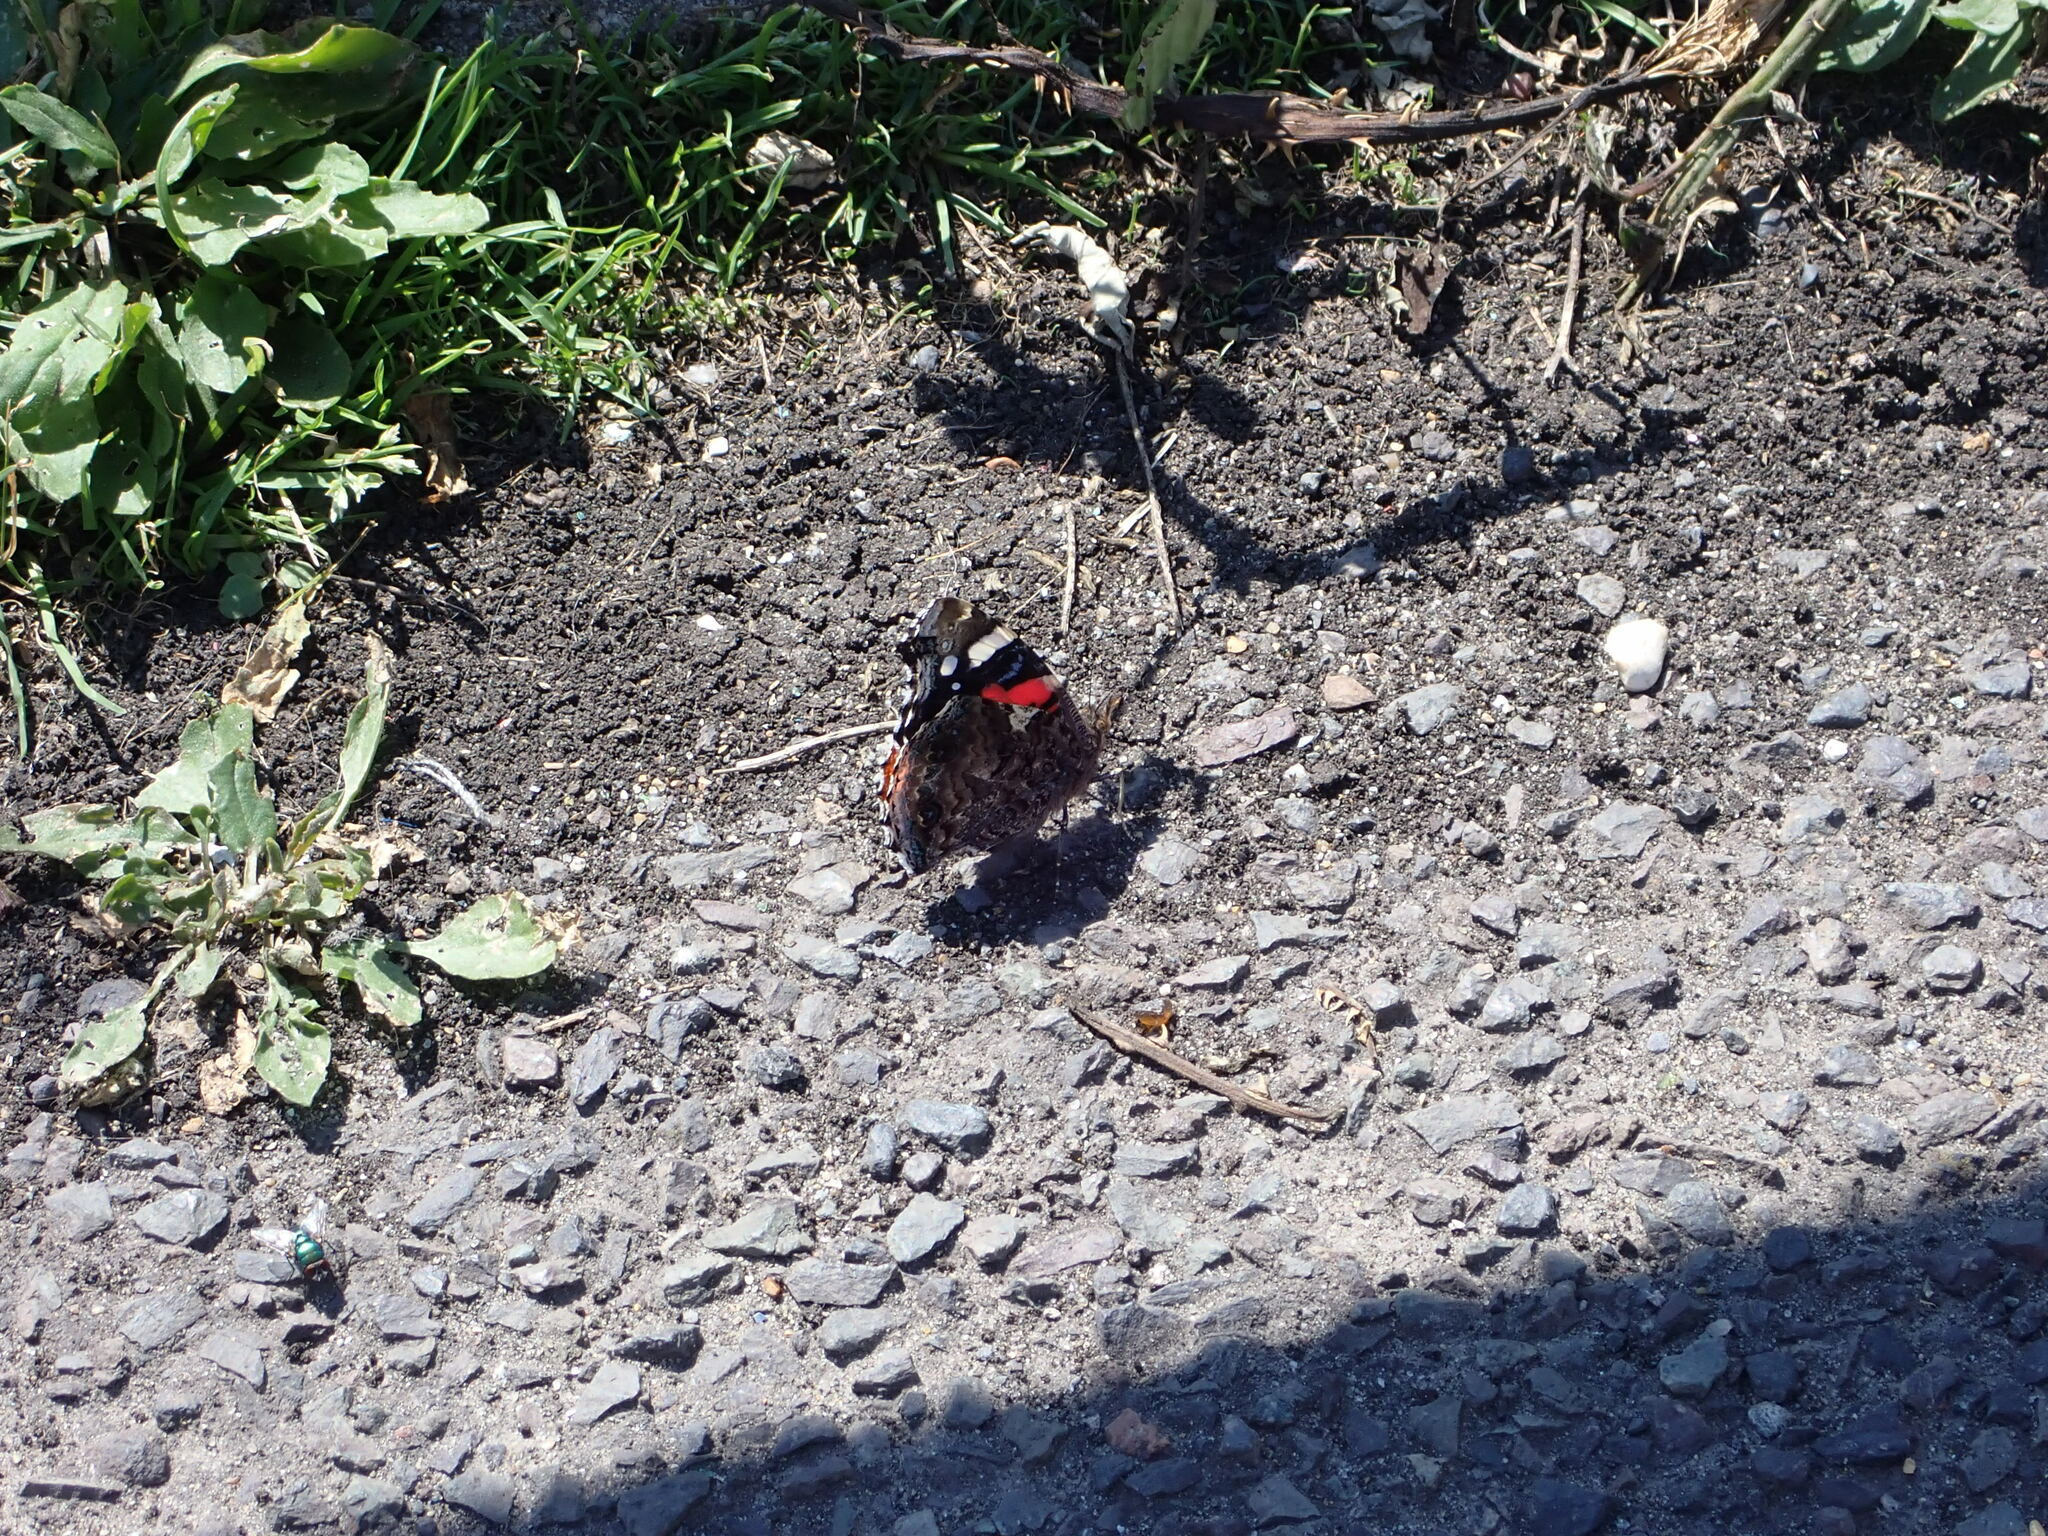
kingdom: Animalia
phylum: Arthropoda
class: Insecta
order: Lepidoptera
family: Nymphalidae
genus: Vanessa
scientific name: Vanessa atalanta
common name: Red admiral
